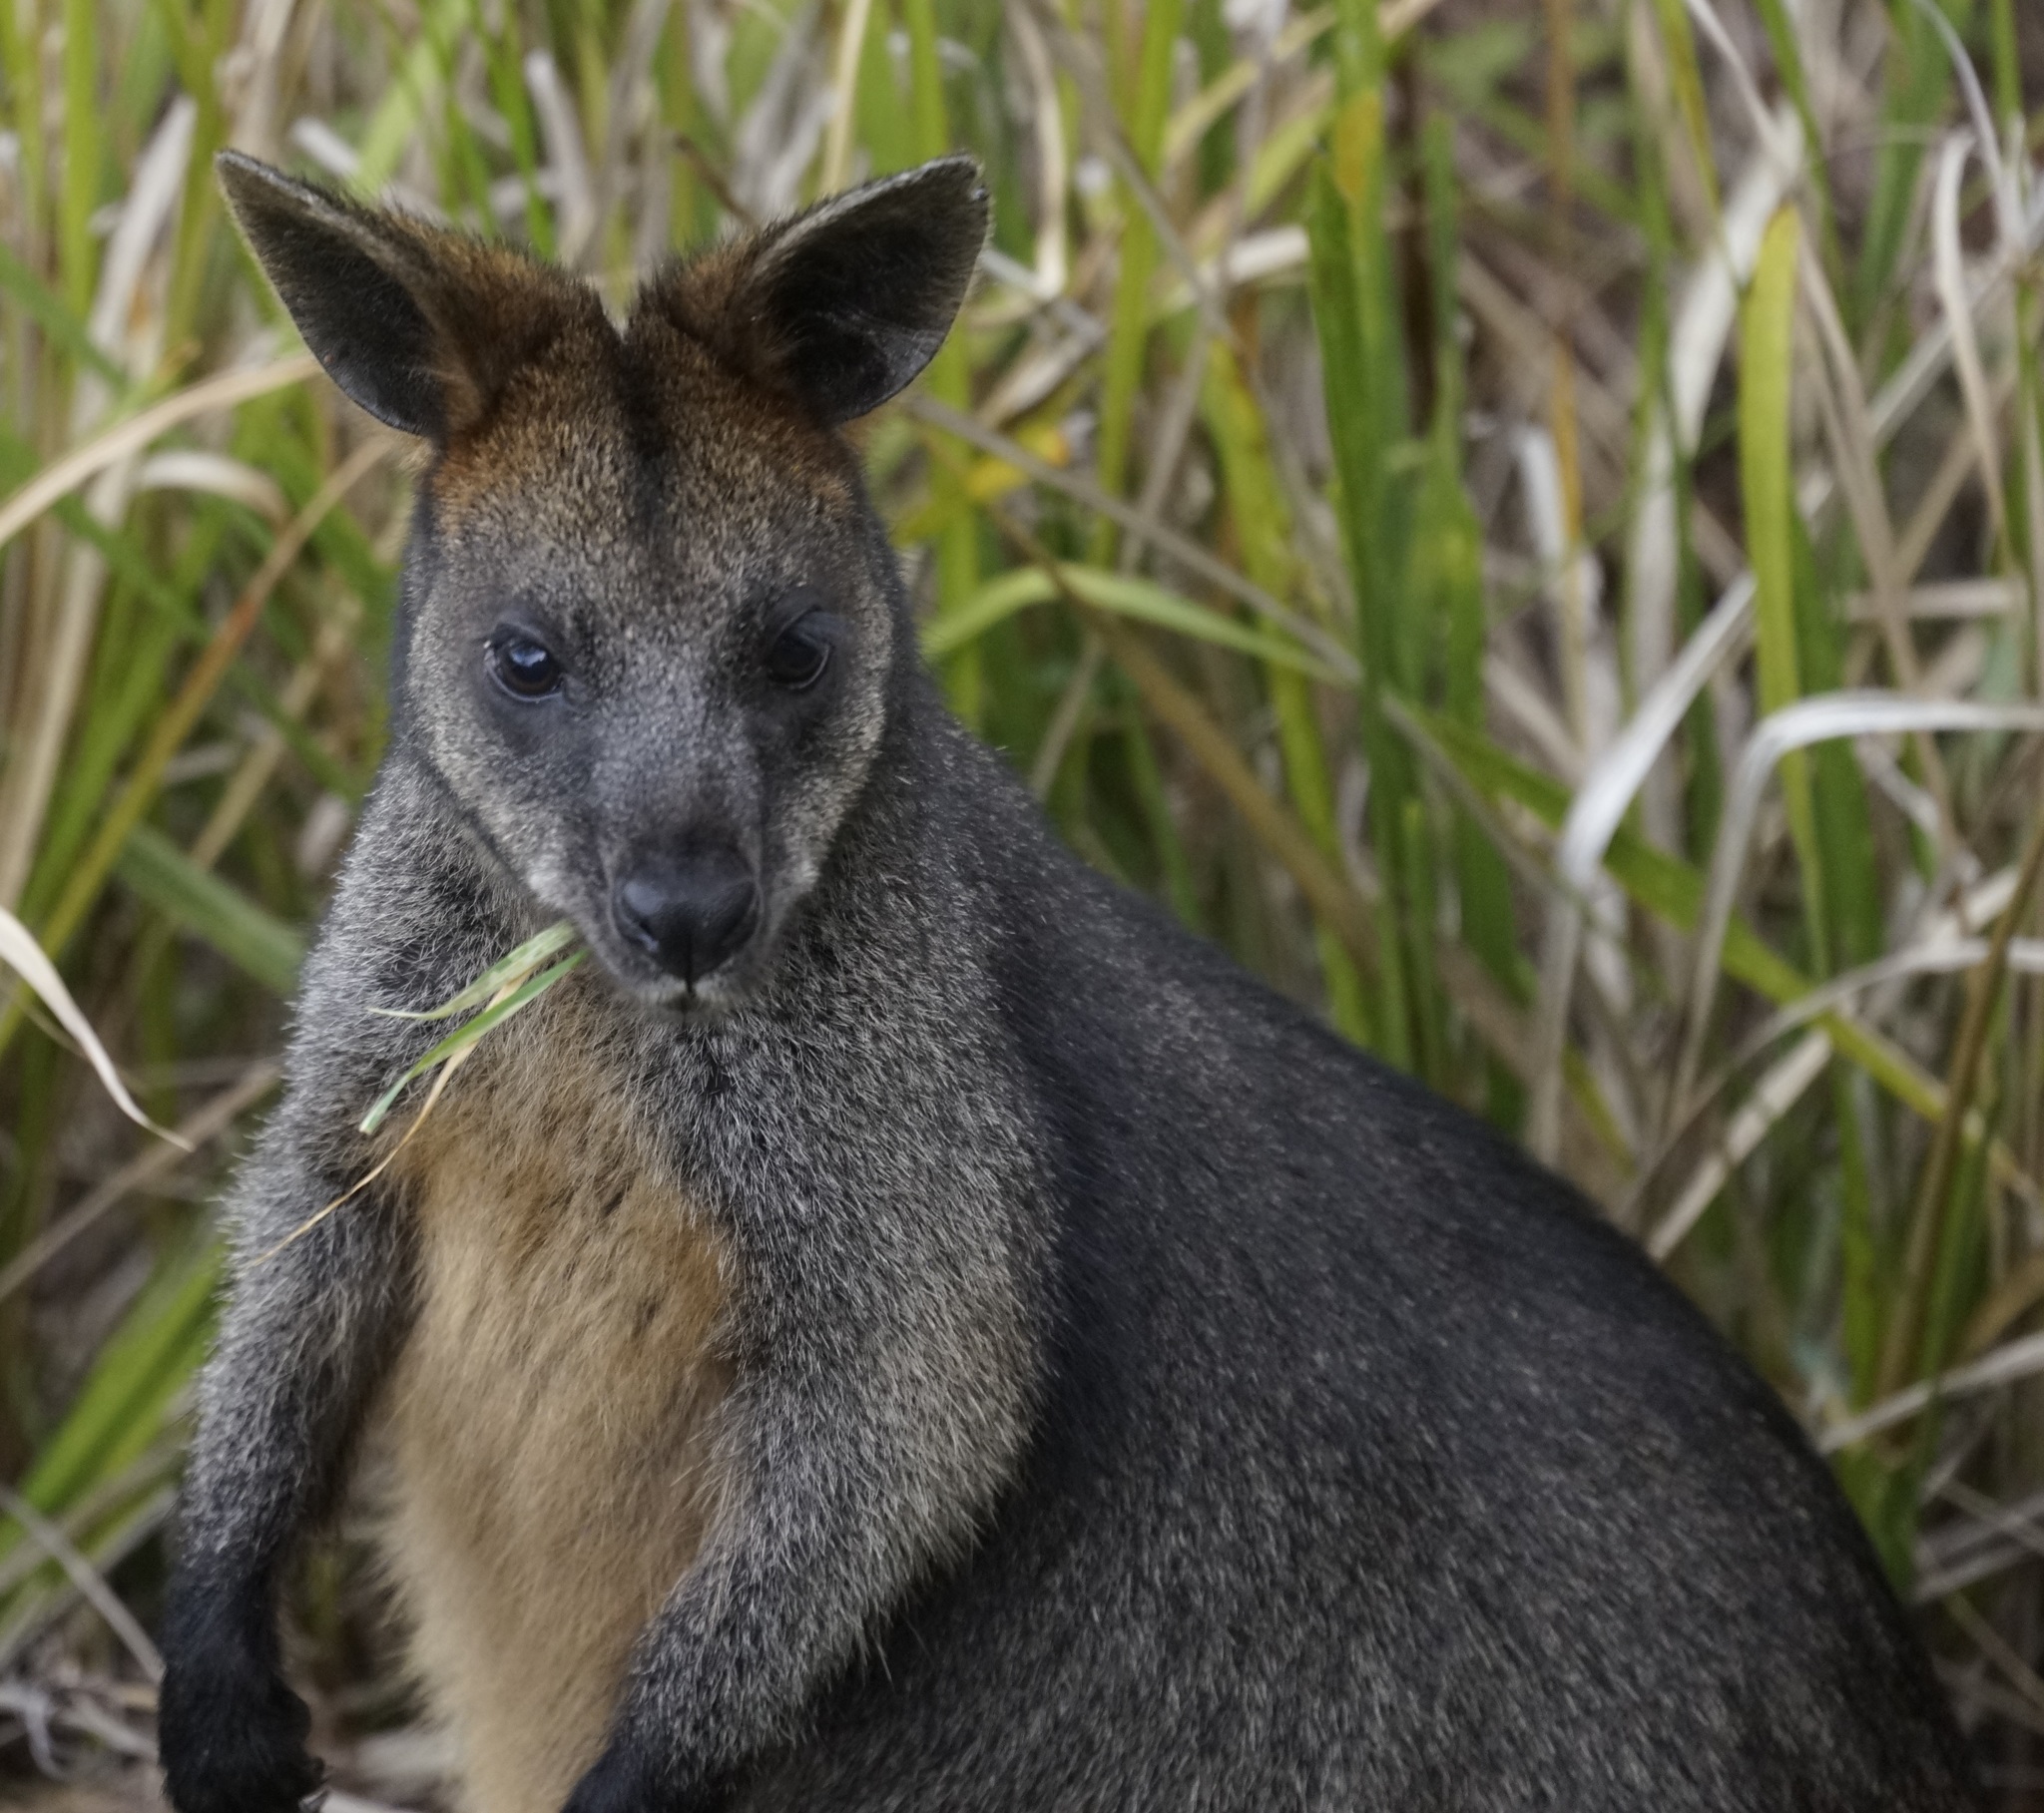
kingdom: Animalia
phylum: Chordata
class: Mammalia
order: Diprotodontia
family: Macropodidae
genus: Wallabia
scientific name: Wallabia bicolor
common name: Swamp wallaby
